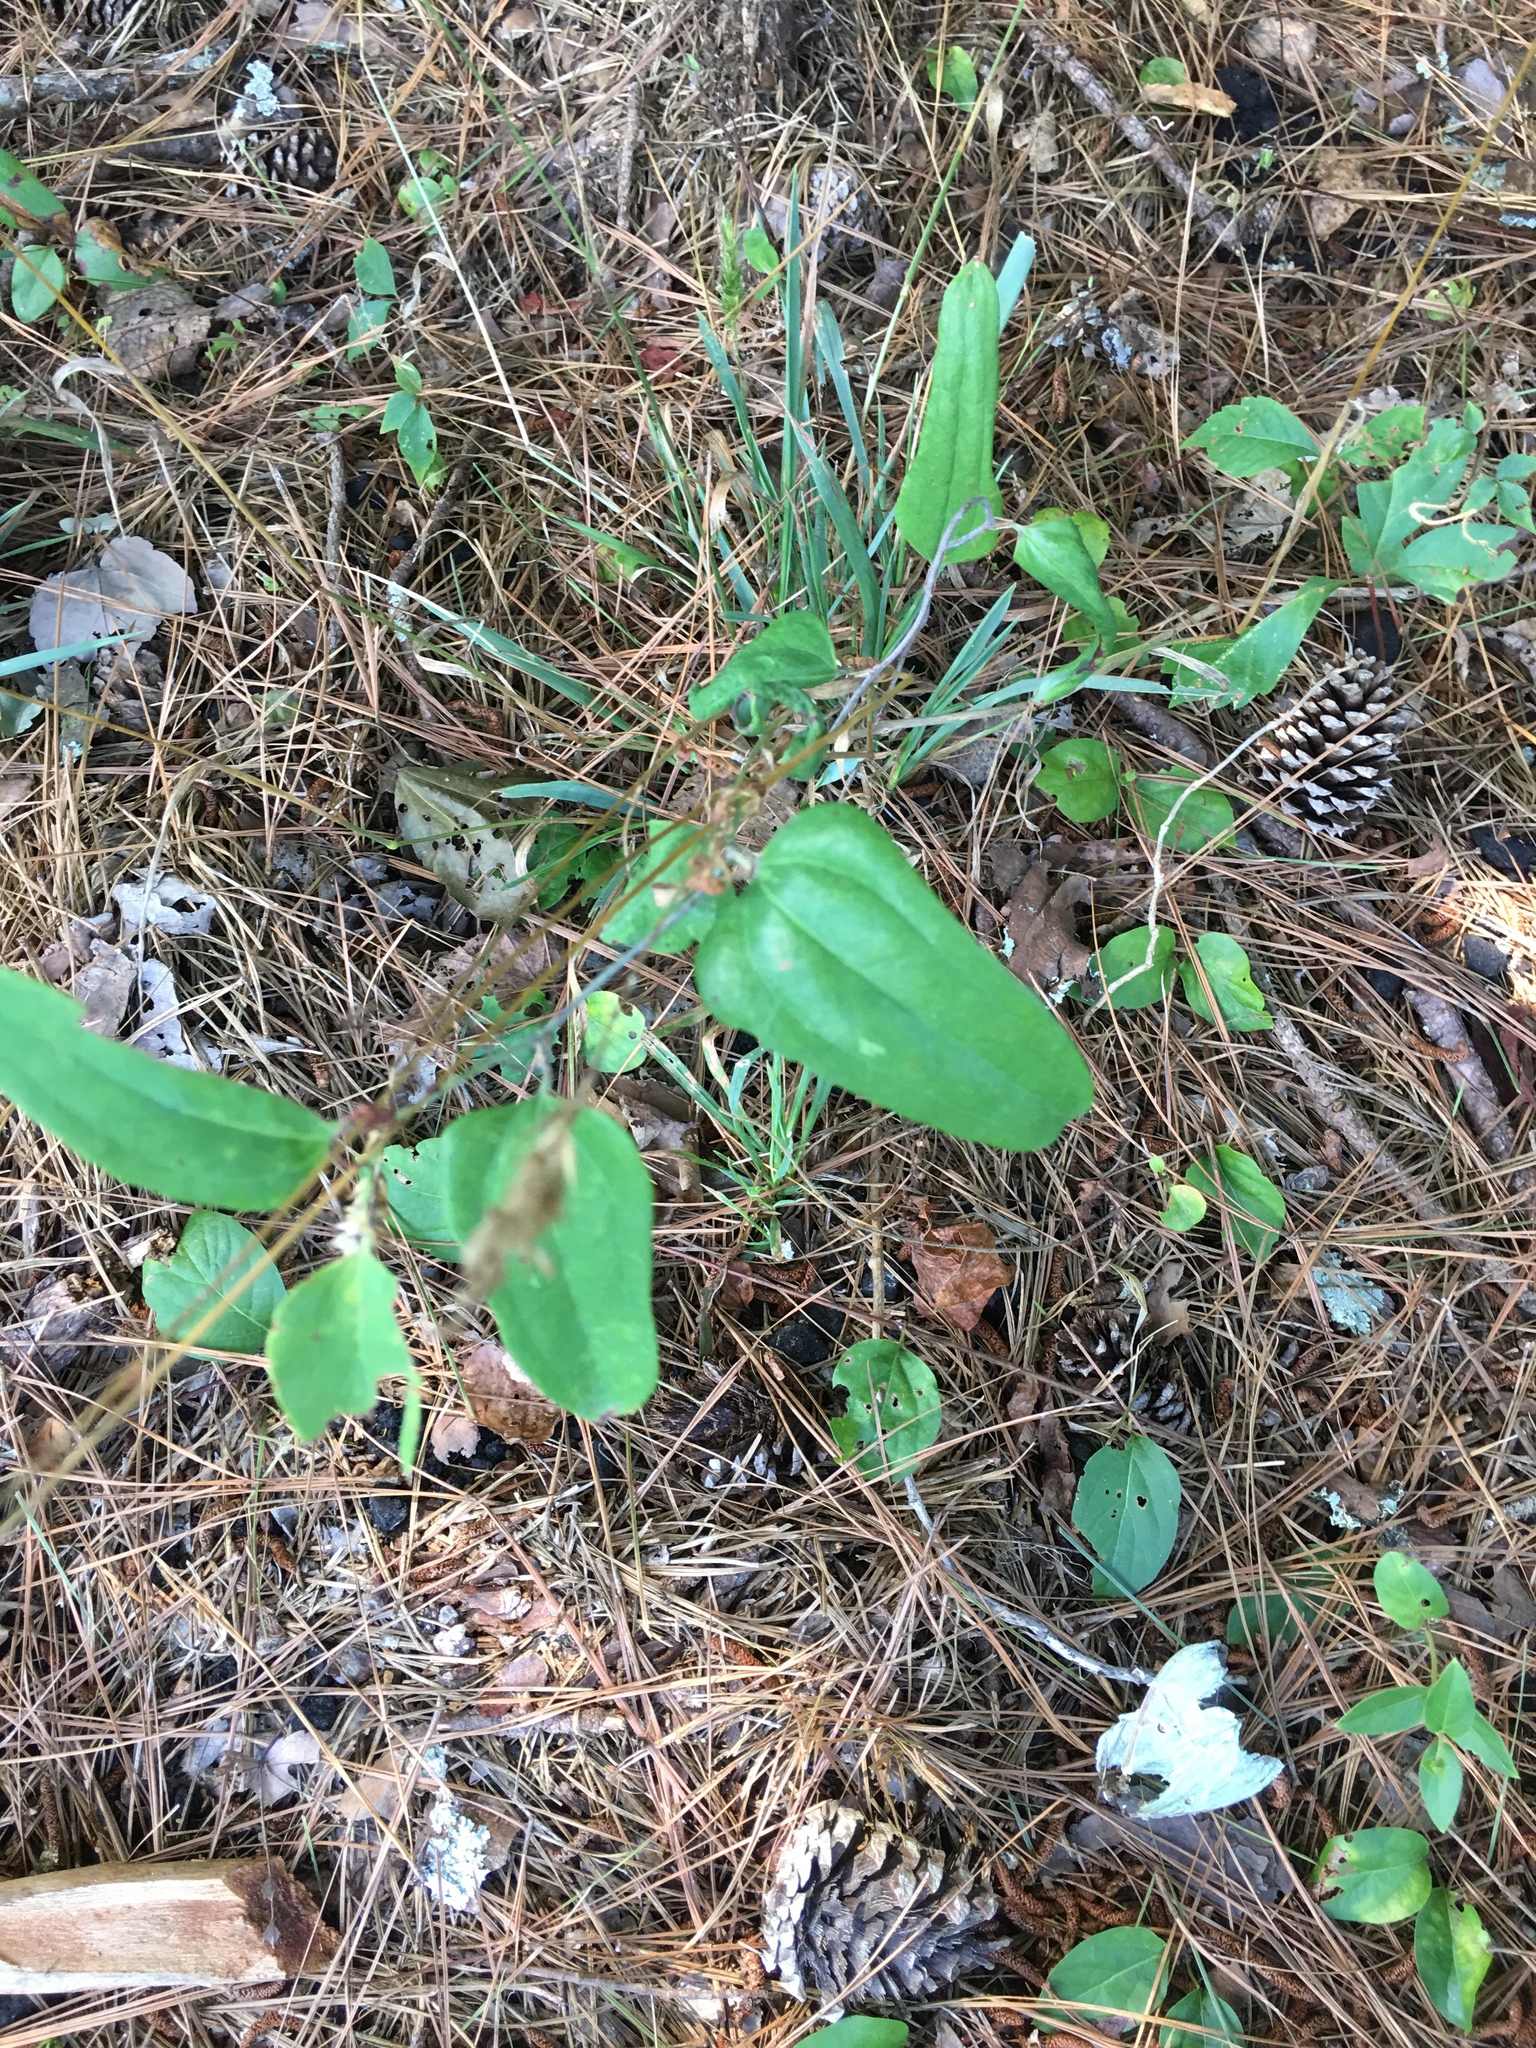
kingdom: Plantae
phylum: Tracheophyta
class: Liliopsida
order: Liliales
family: Smilacaceae
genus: Smilax
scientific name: Smilax glauca
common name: Cat greenbrier
